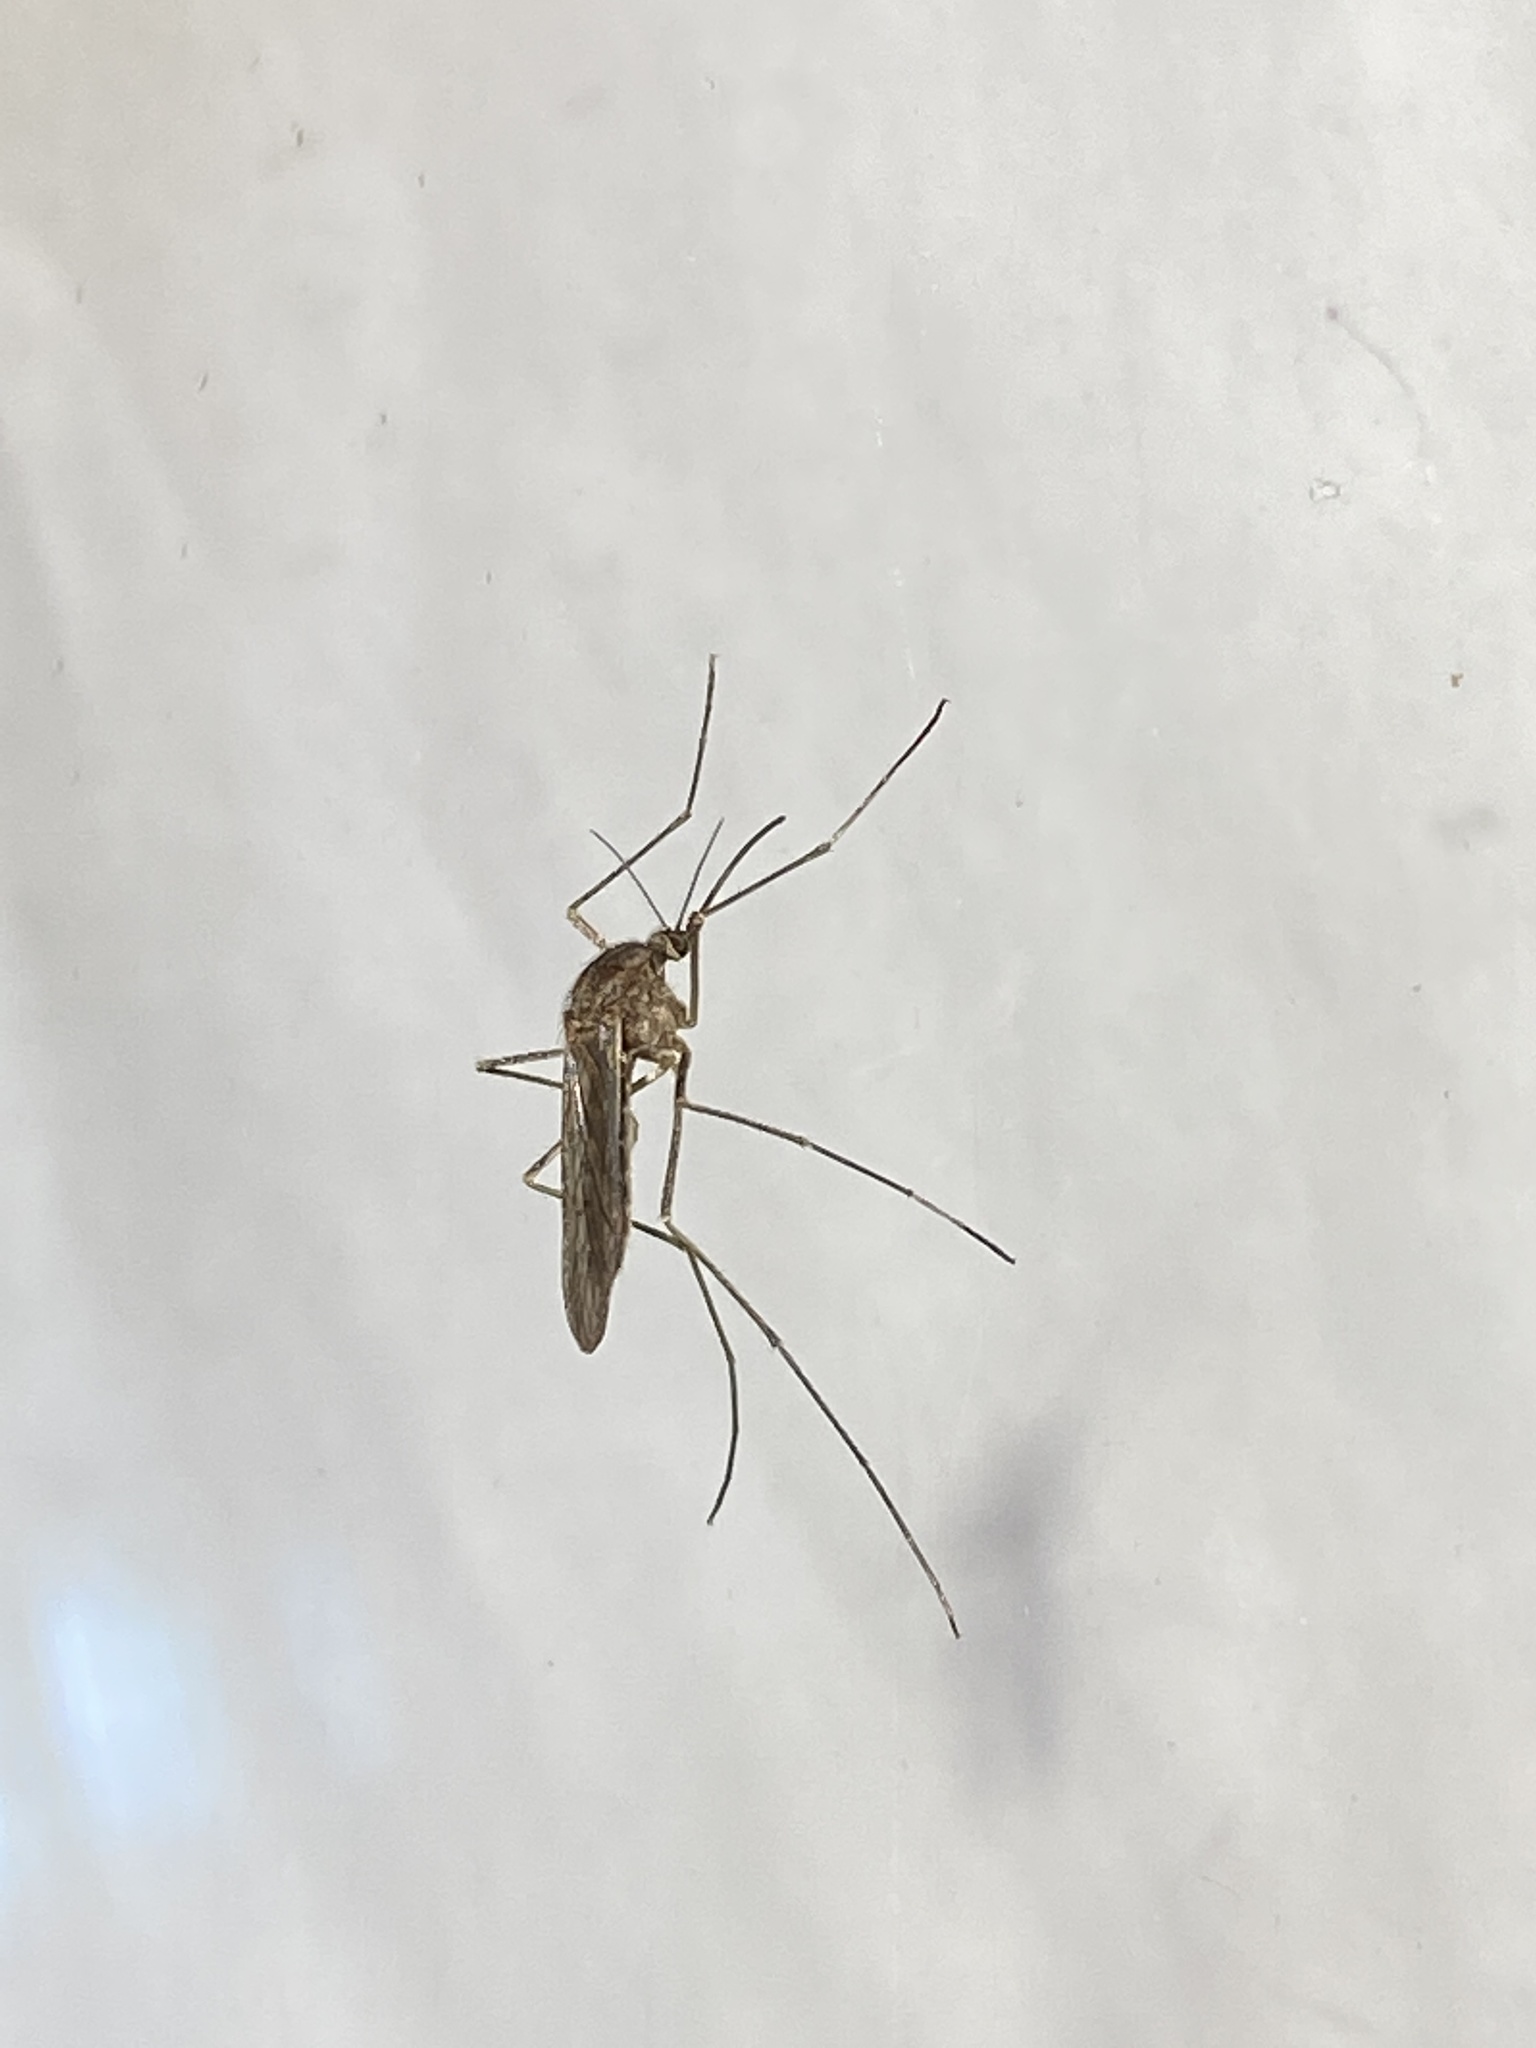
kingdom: Animalia
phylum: Arthropoda
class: Insecta
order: Diptera
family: Culicidae
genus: Culiseta
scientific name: Culiseta inornata
